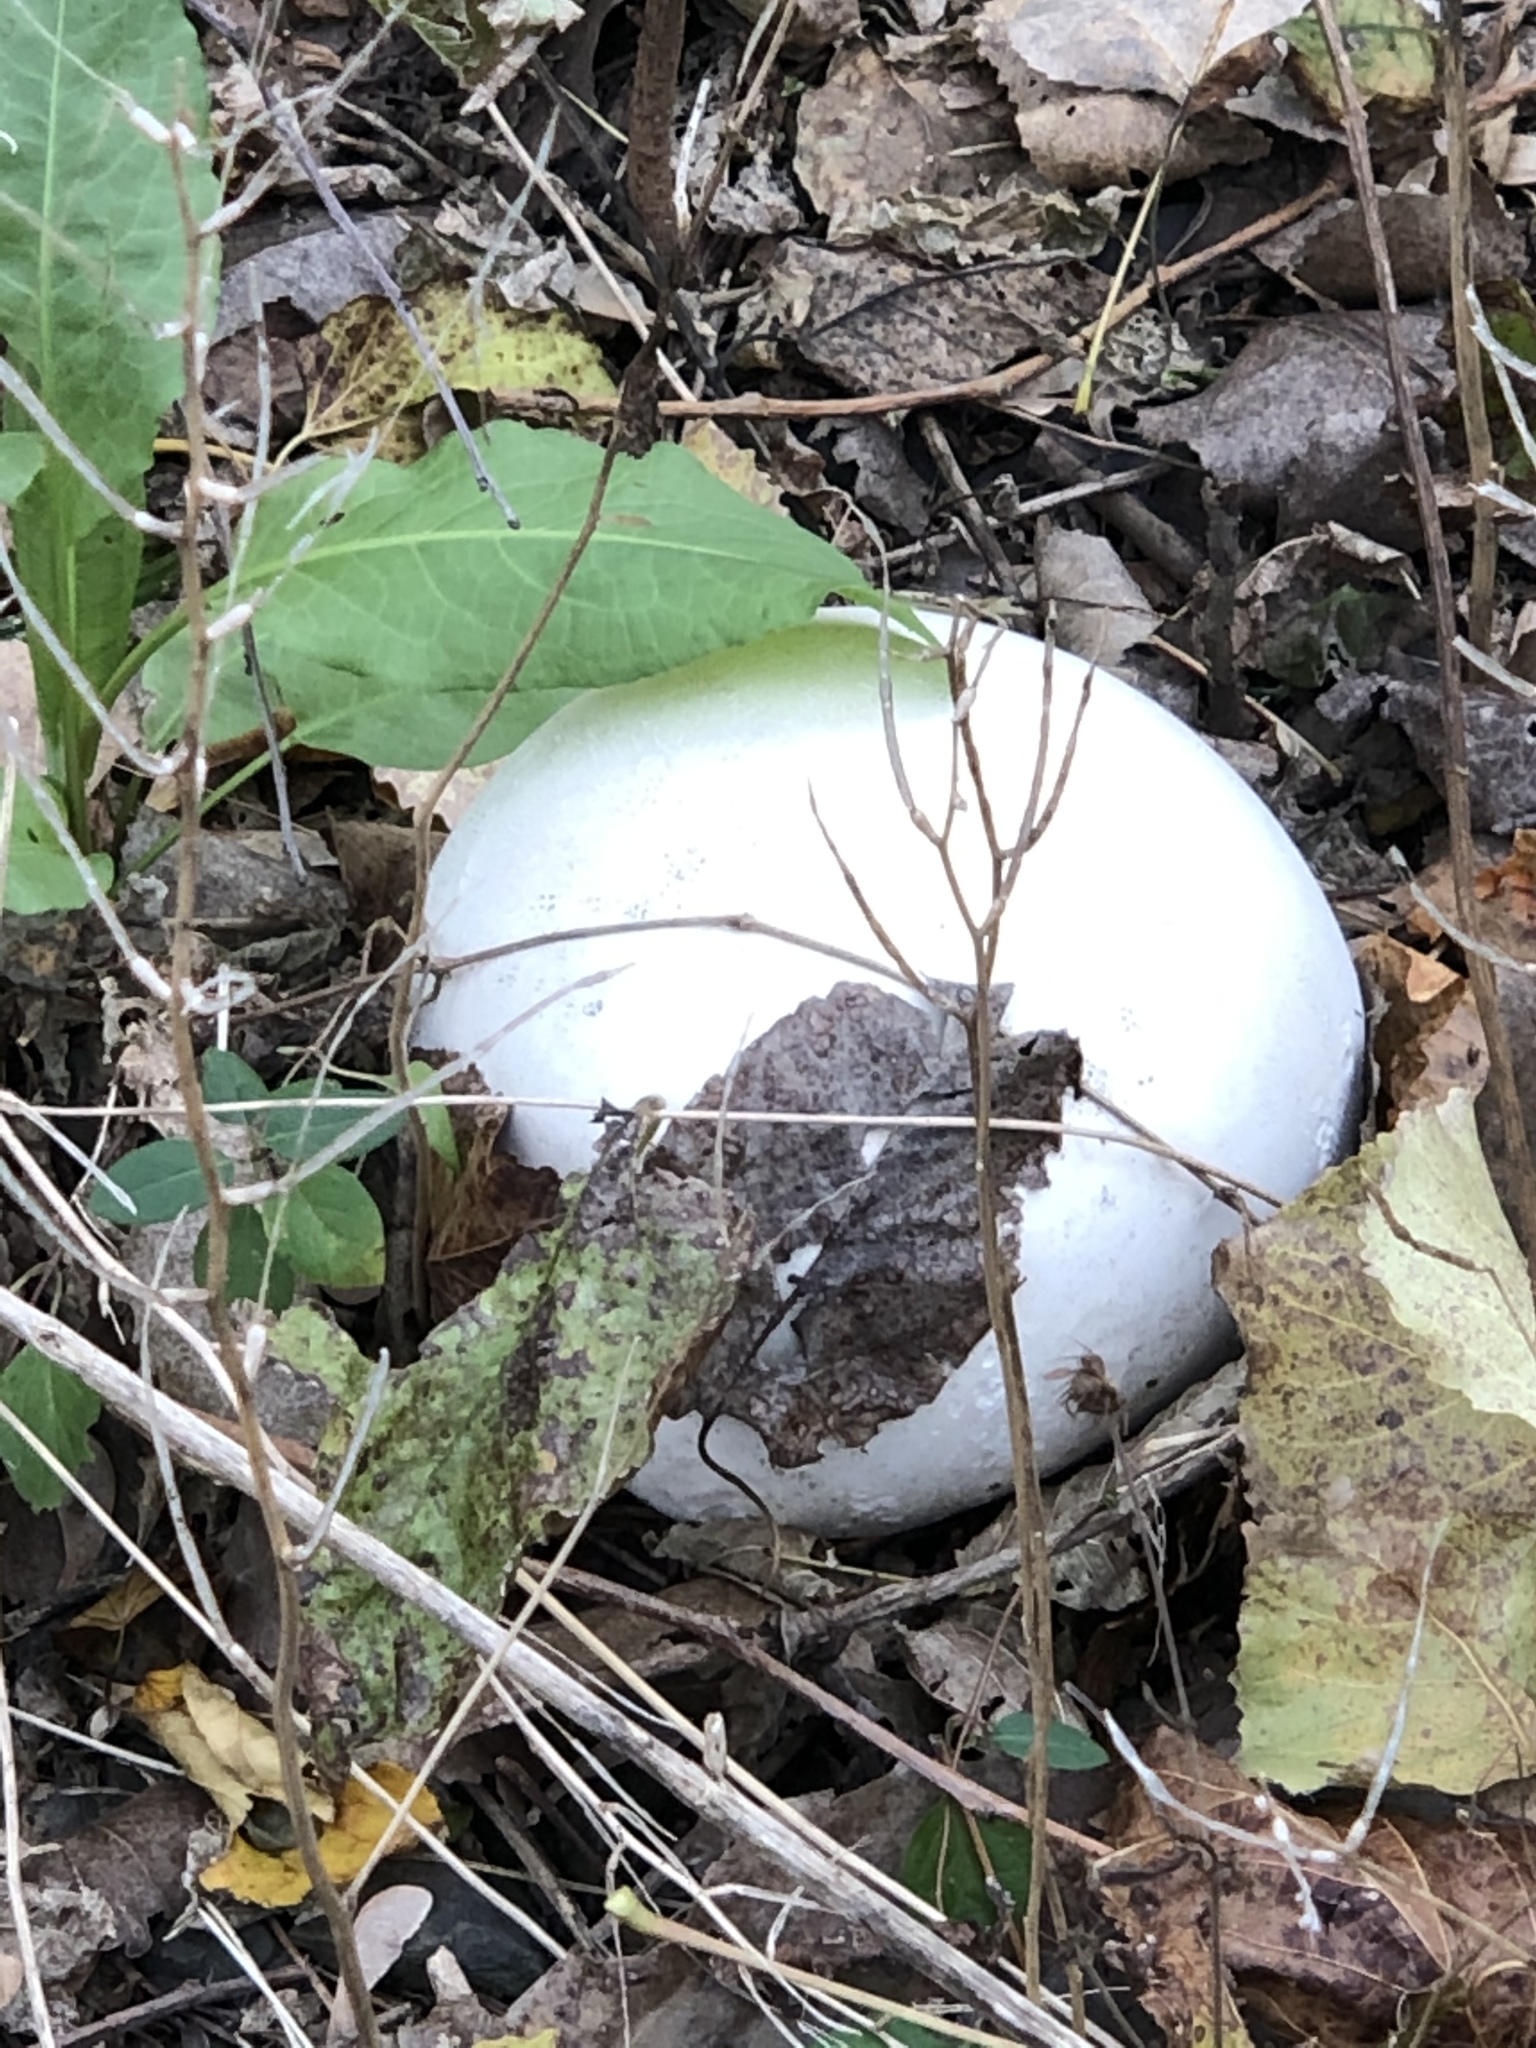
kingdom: Fungi
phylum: Basidiomycota
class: Agaricomycetes
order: Agaricales
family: Lycoperdaceae
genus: Calvatia
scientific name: Calvatia gigantea
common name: Giant puffball
